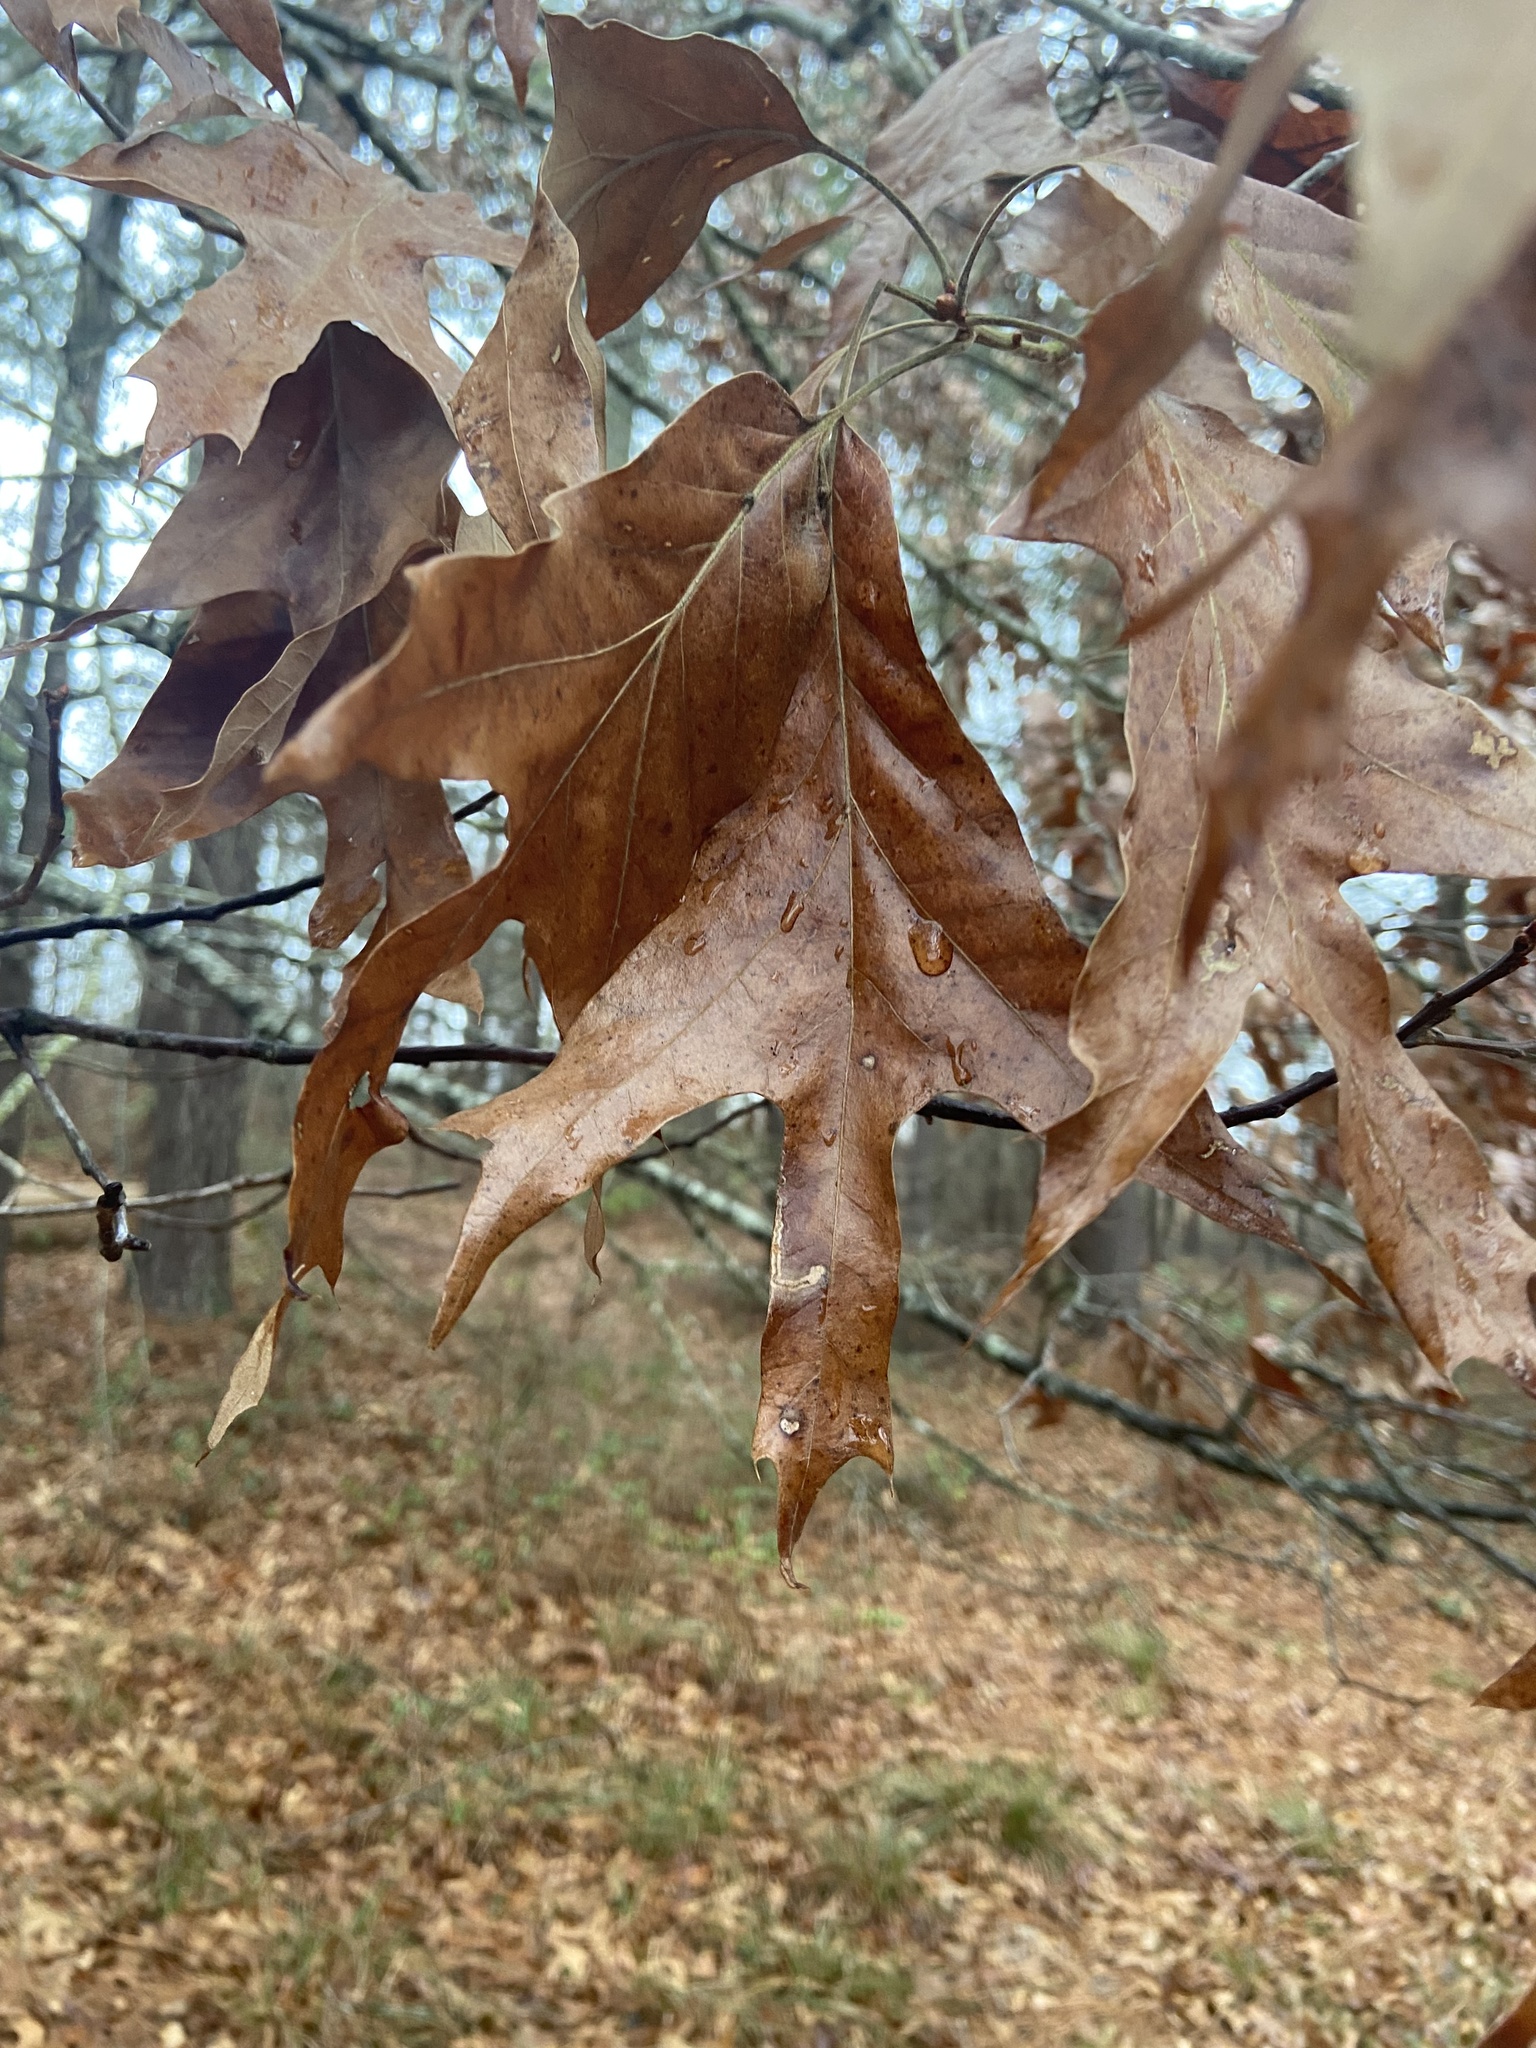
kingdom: Plantae
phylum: Tracheophyta
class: Magnoliopsida
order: Fagales
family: Fagaceae
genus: Quercus
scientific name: Quercus falcata
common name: Southern red oak
